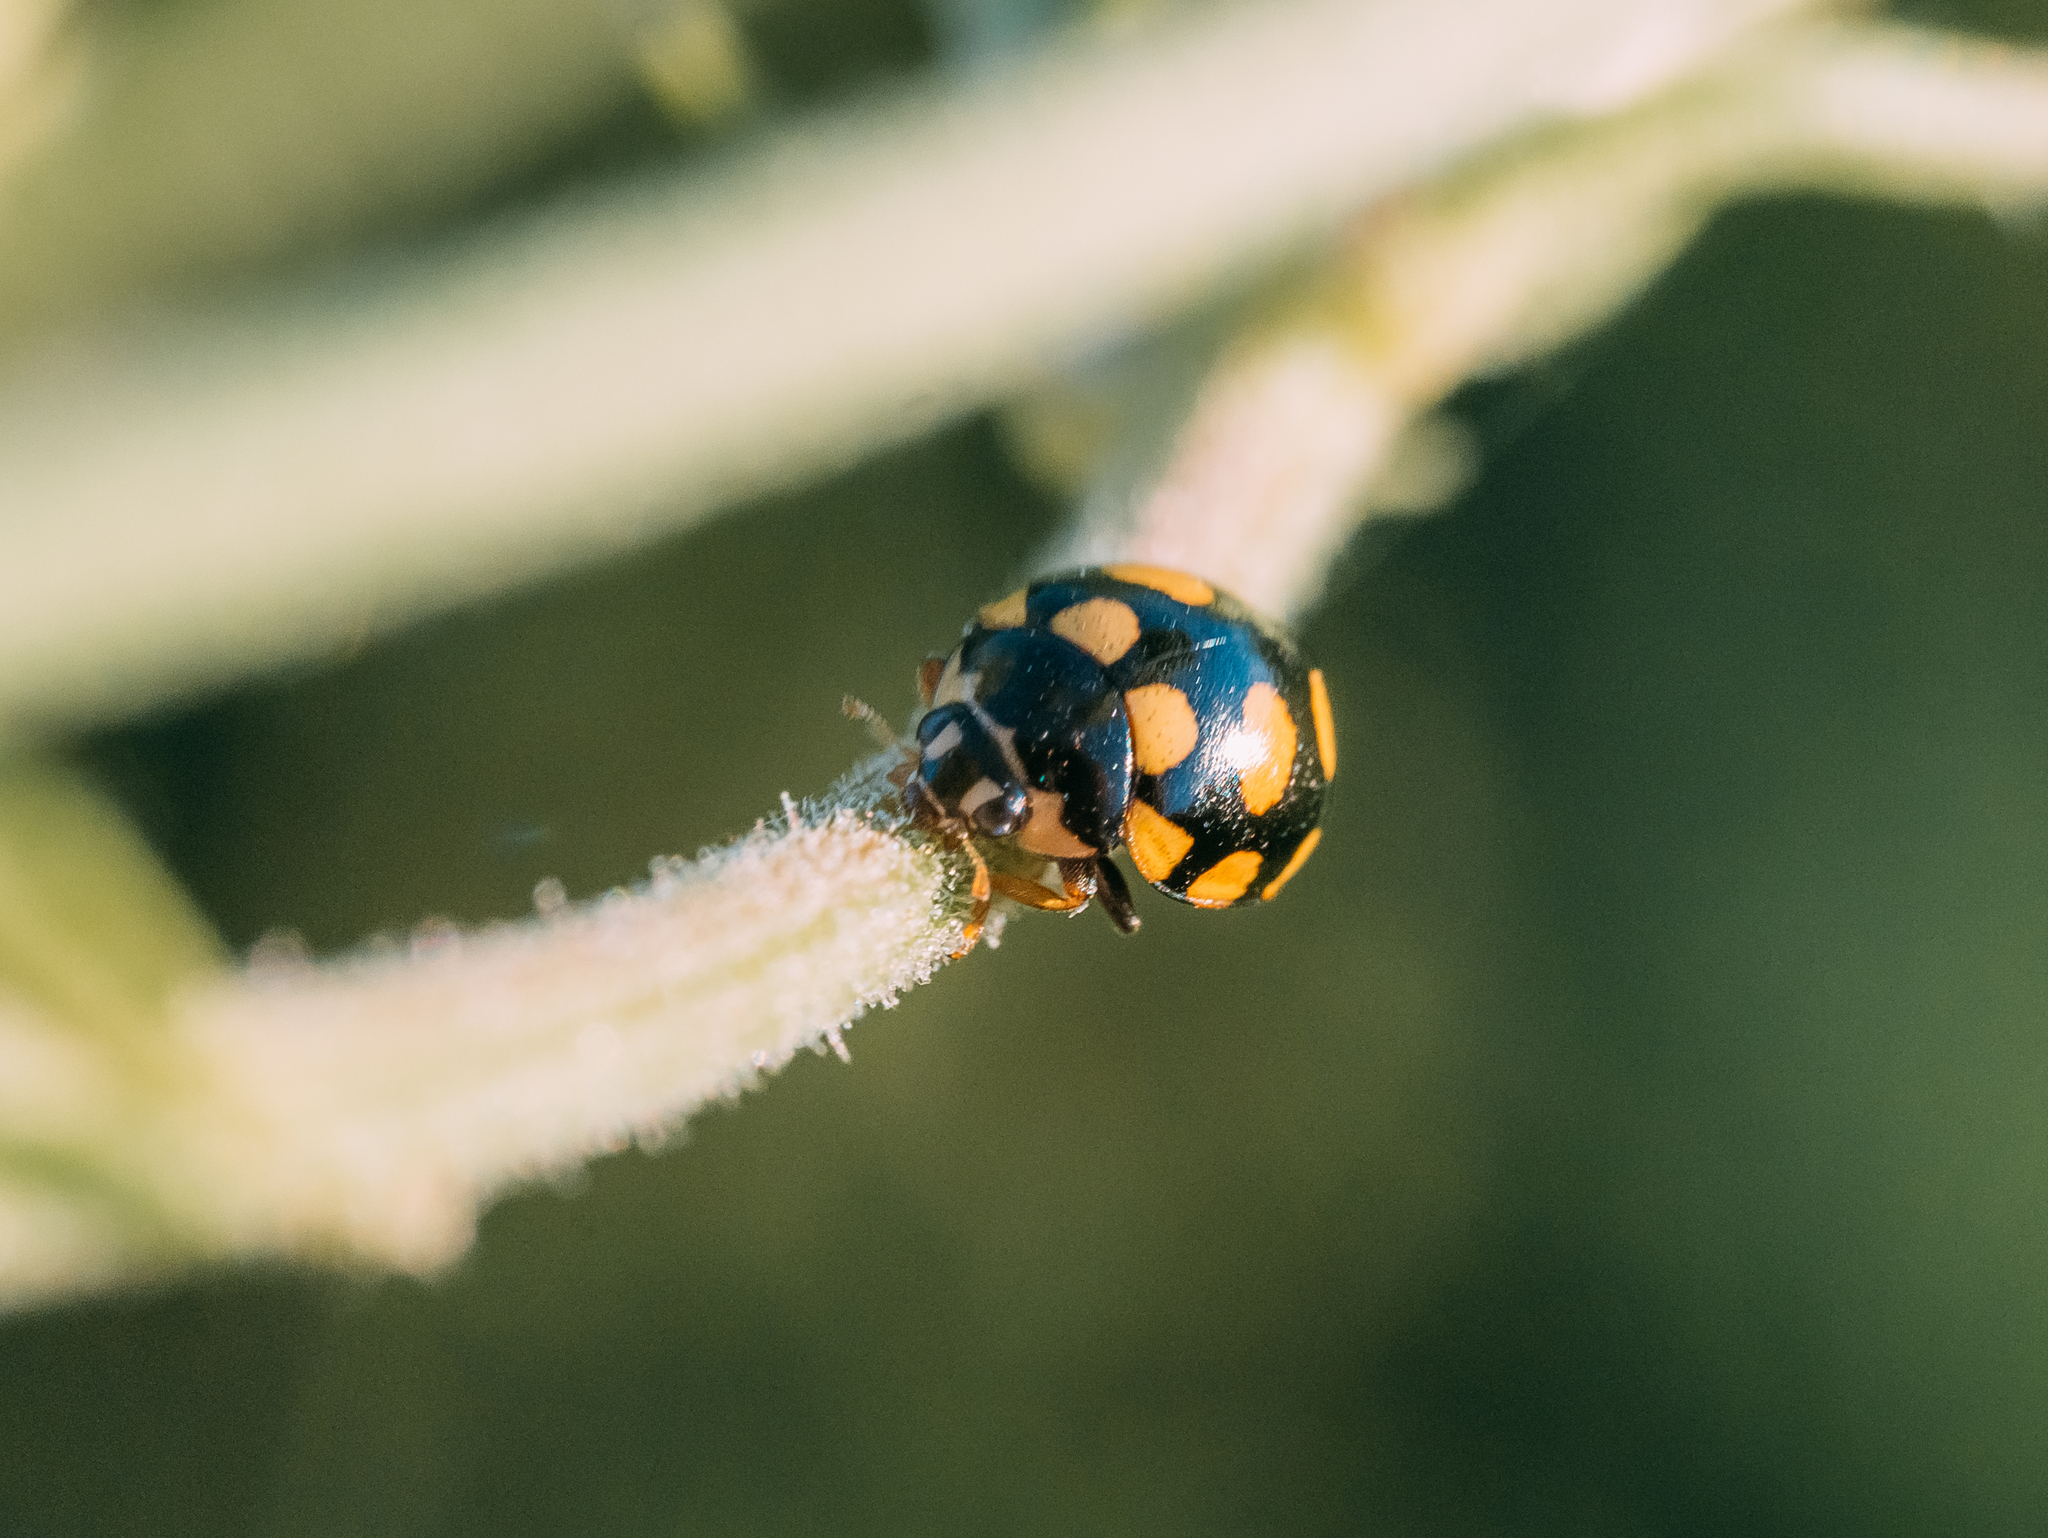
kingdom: Animalia
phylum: Arthropoda
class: Insecta
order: Coleoptera
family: Coccinellidae
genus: Coccinula
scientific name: Coccinula quatuordecimpustulata
